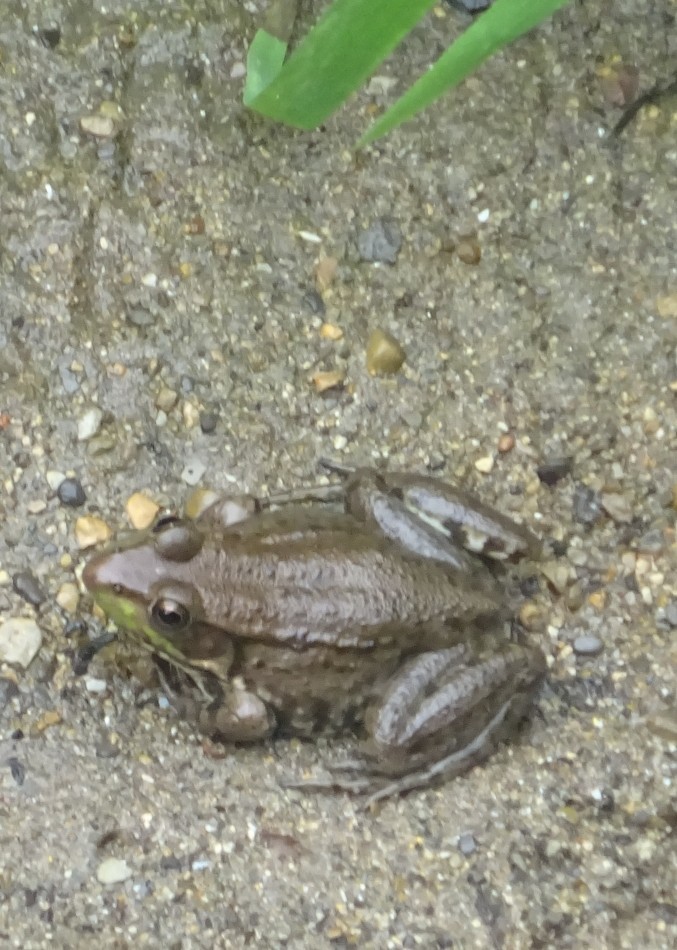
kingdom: Animalia
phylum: Chordata
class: Amphibia
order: Anura
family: Ranidae
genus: Lithobates
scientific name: Lithobates clamitans
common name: Green frog
